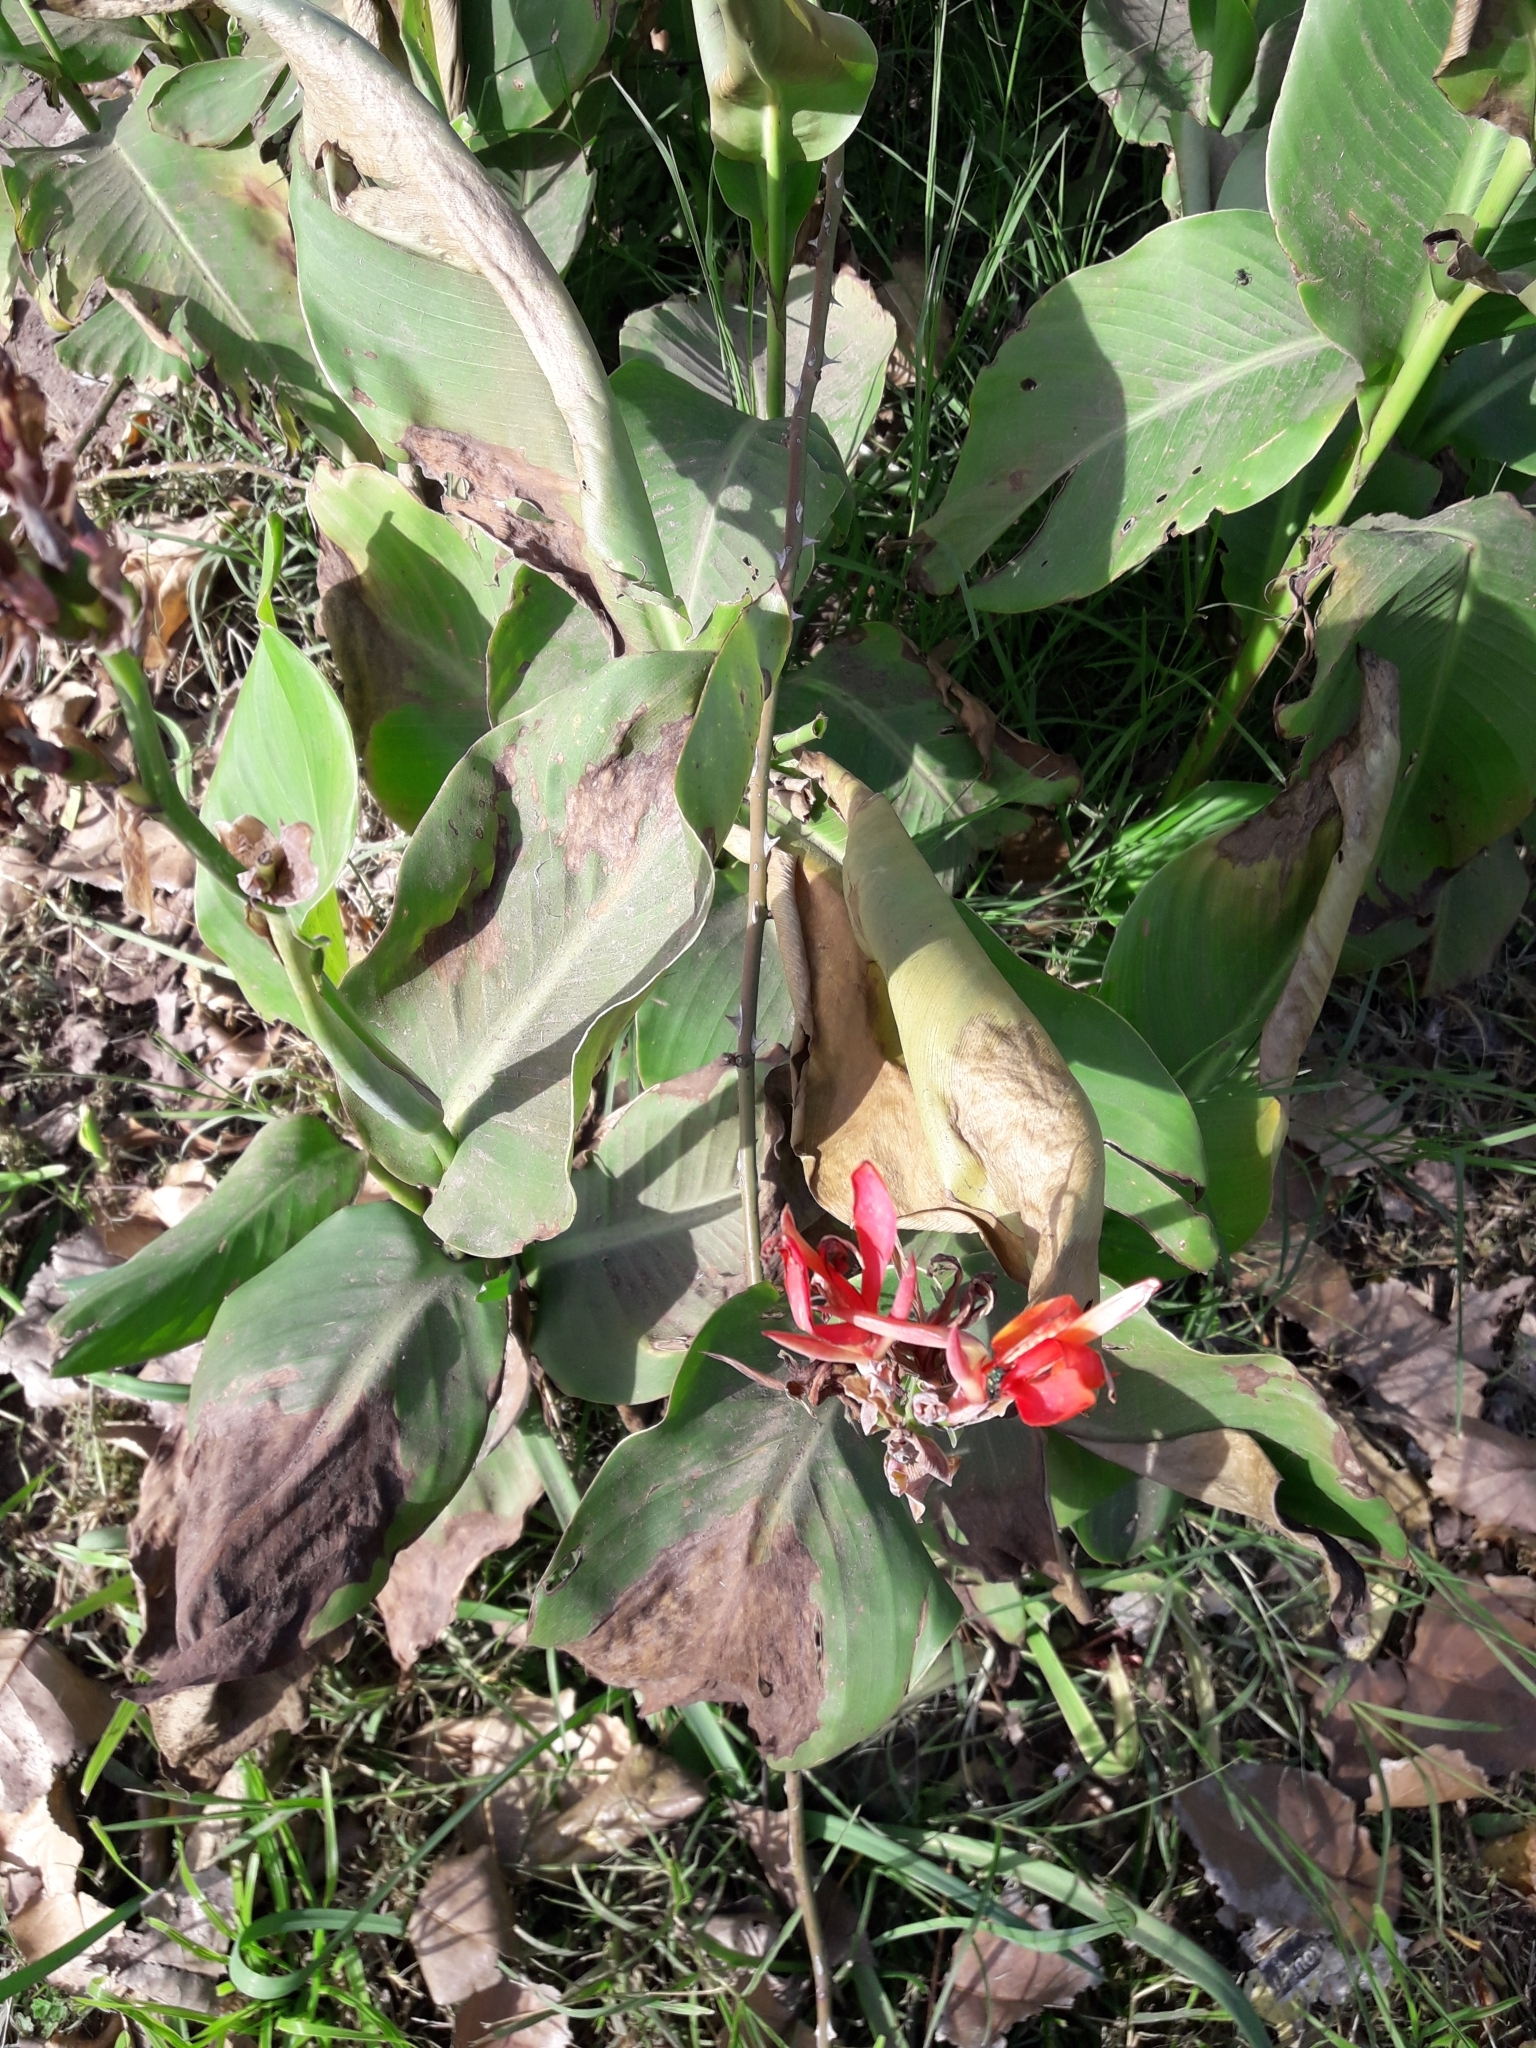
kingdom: Plantae
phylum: Tracheophyta
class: Liliopsida
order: Zingiberales
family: Cannaceae
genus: Canna
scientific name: Canna indica
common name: Indian shot
